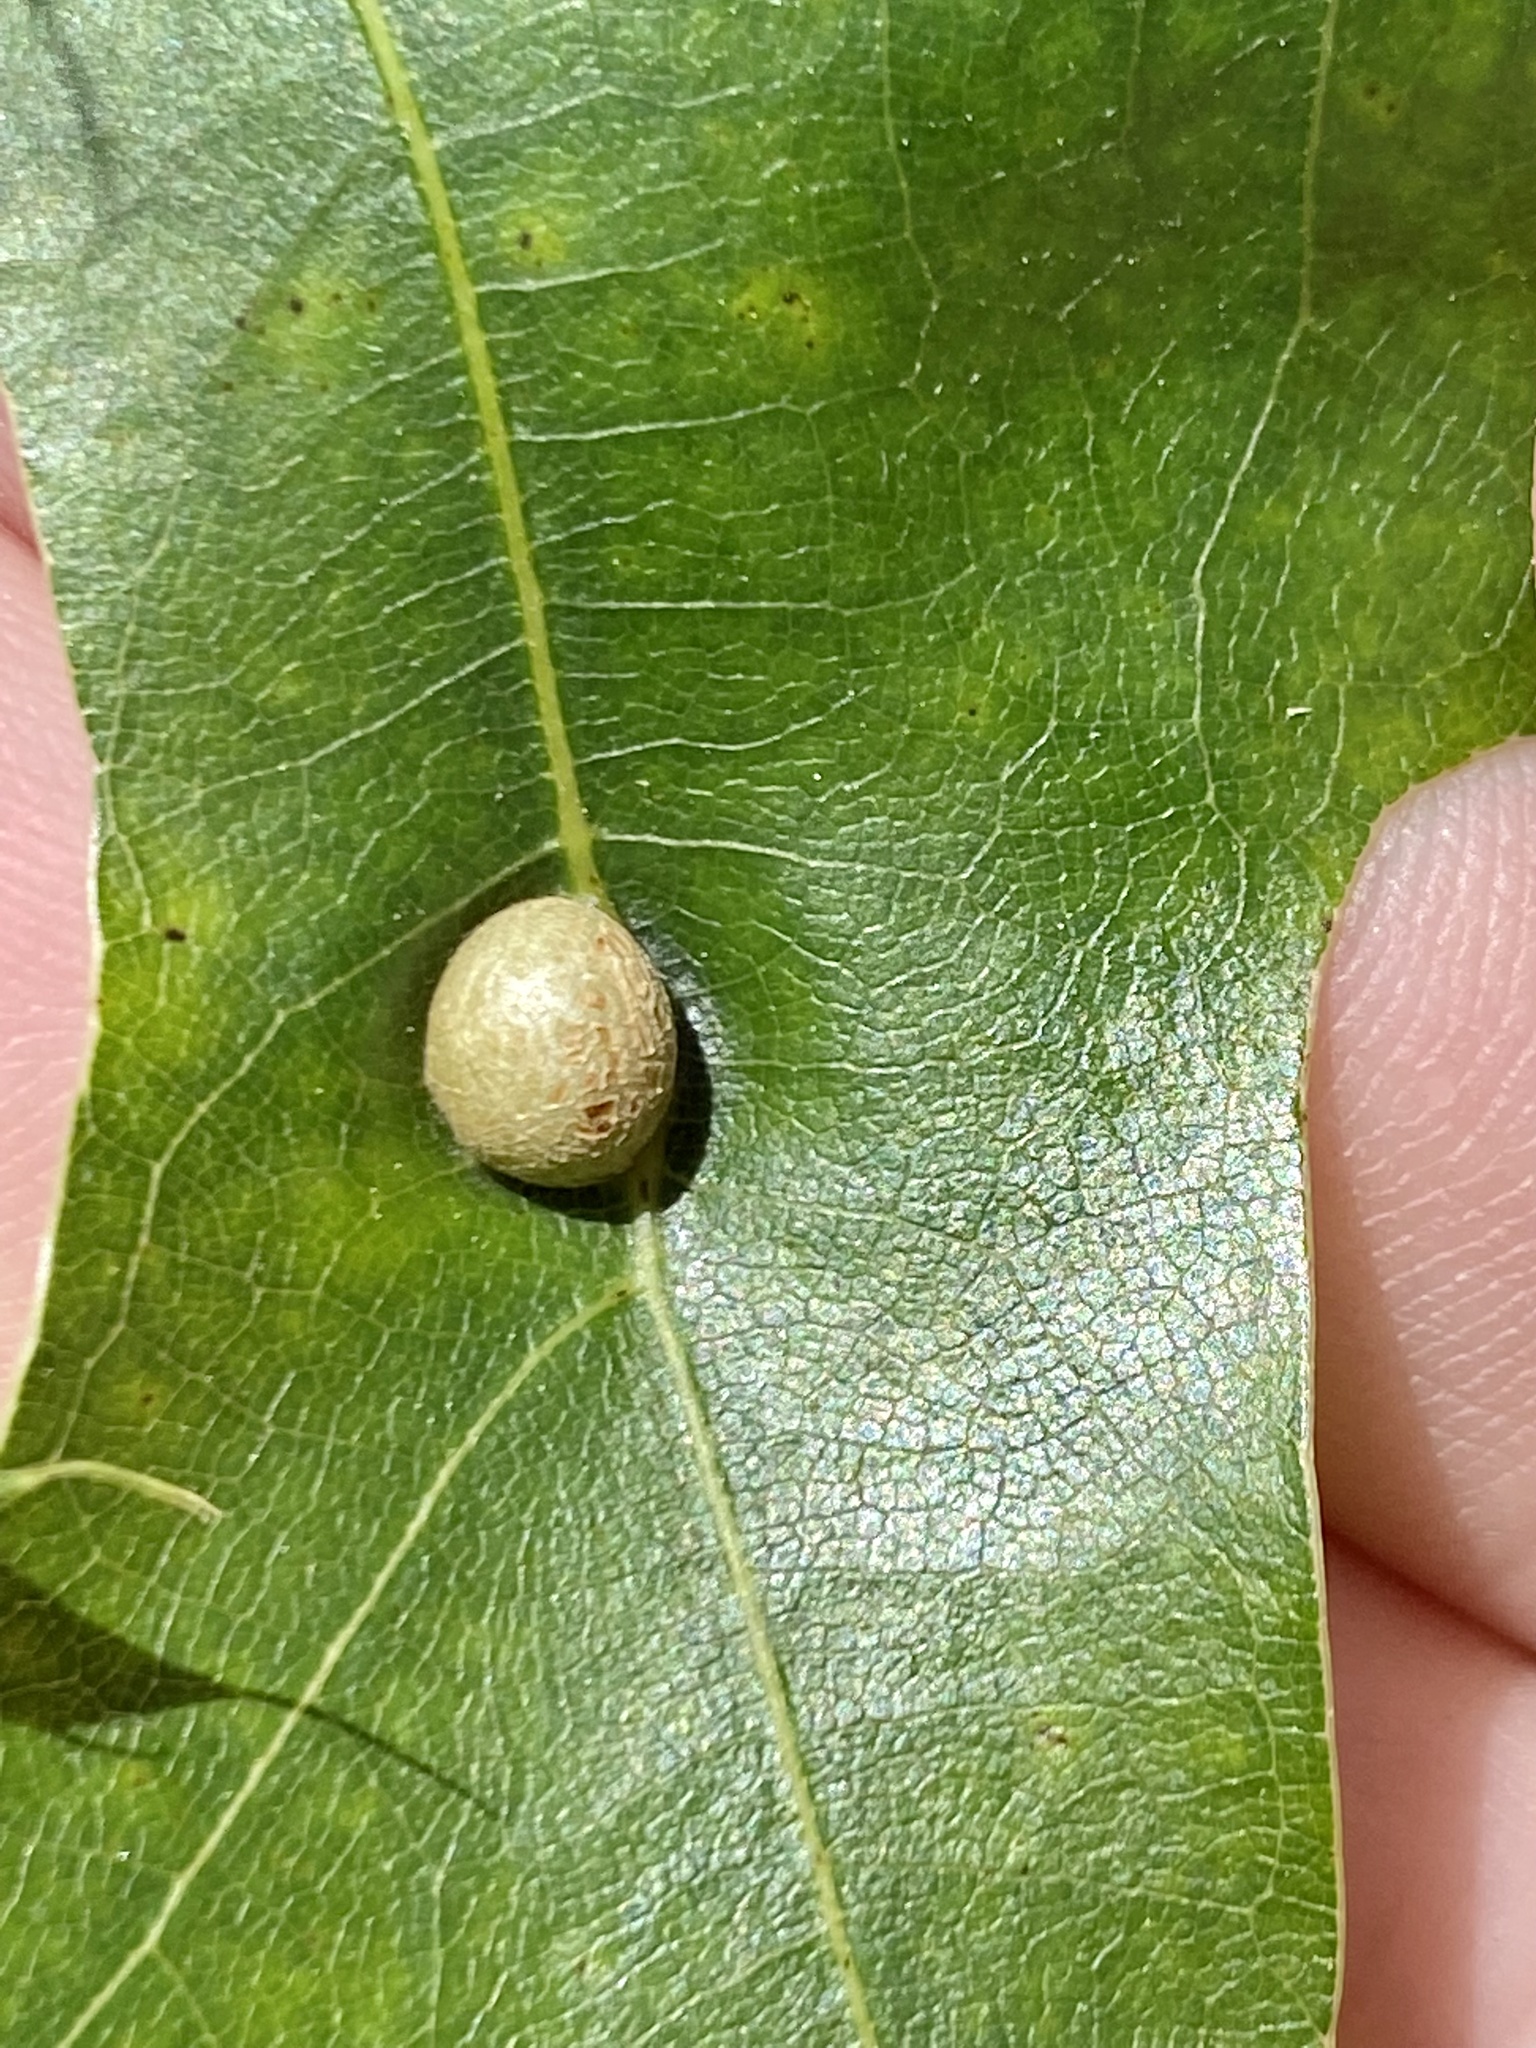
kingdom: Animalia
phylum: Arthropoda
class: Insecta
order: Diptera
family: Cecidomyiidae
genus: Polystepha
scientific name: Polystepha pilulae
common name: Oak leaf gall midge
